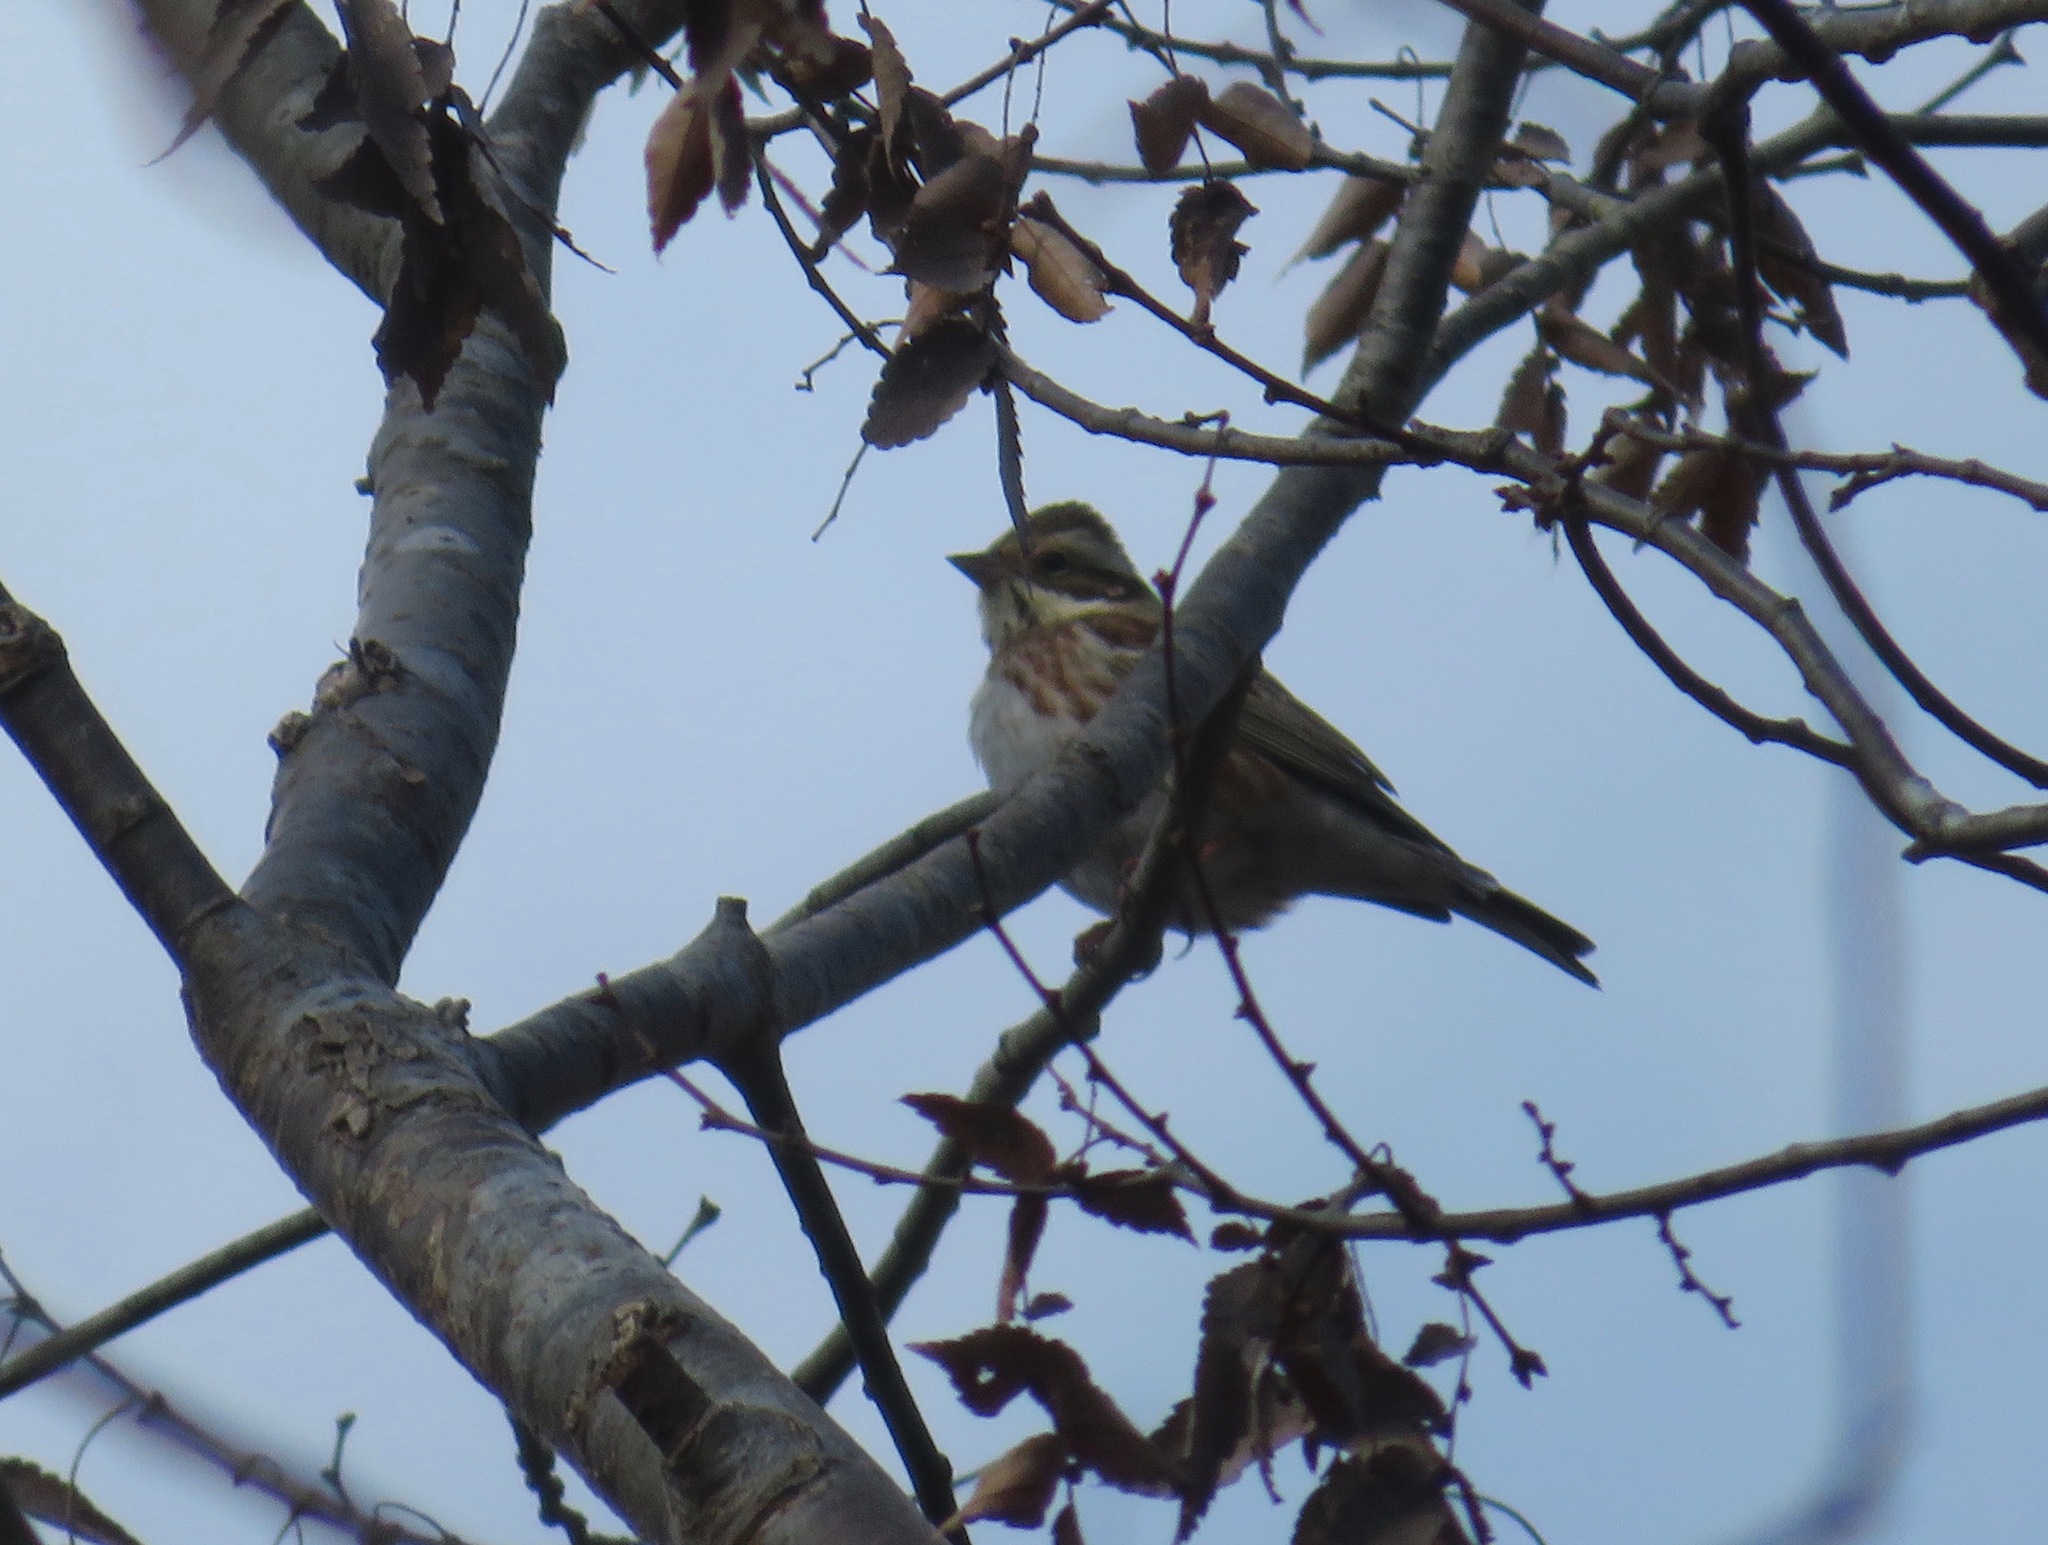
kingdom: Animalia
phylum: Chordata
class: Aves
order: Passeriformes
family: Emberizidae
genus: Emberiza
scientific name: Emberiza rustica
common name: Rustic bunting
